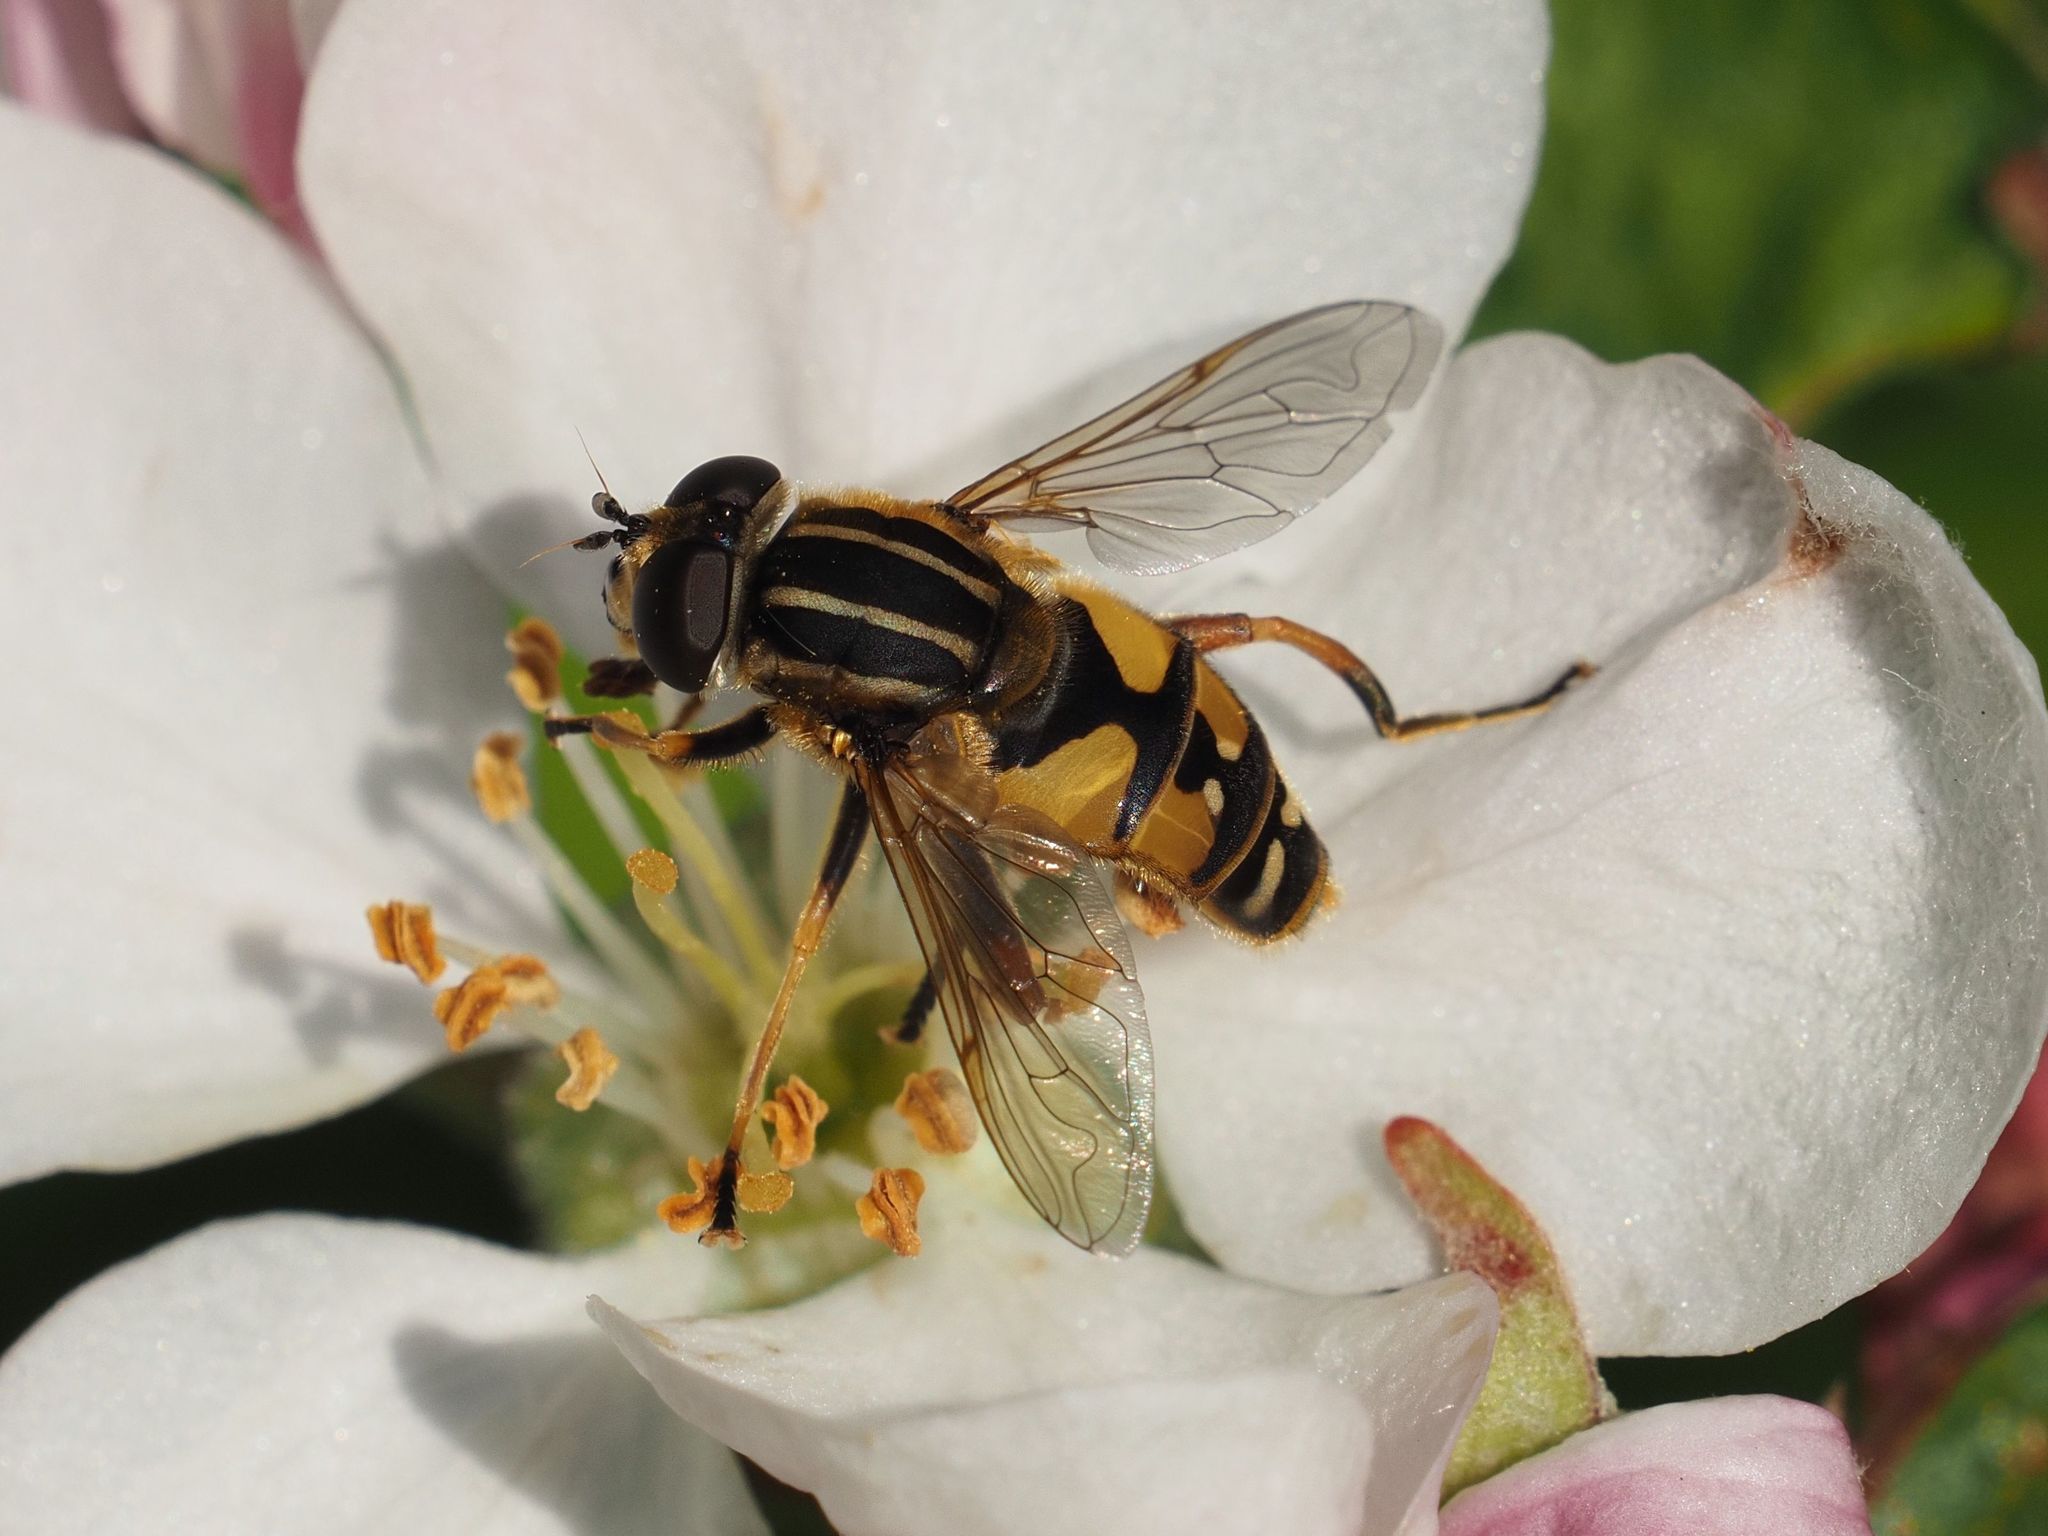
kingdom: Animalia
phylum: Arthropoda
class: Insecta
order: Diptera
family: Syrphidae
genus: Helophilus
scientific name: Helophilus pendulus
